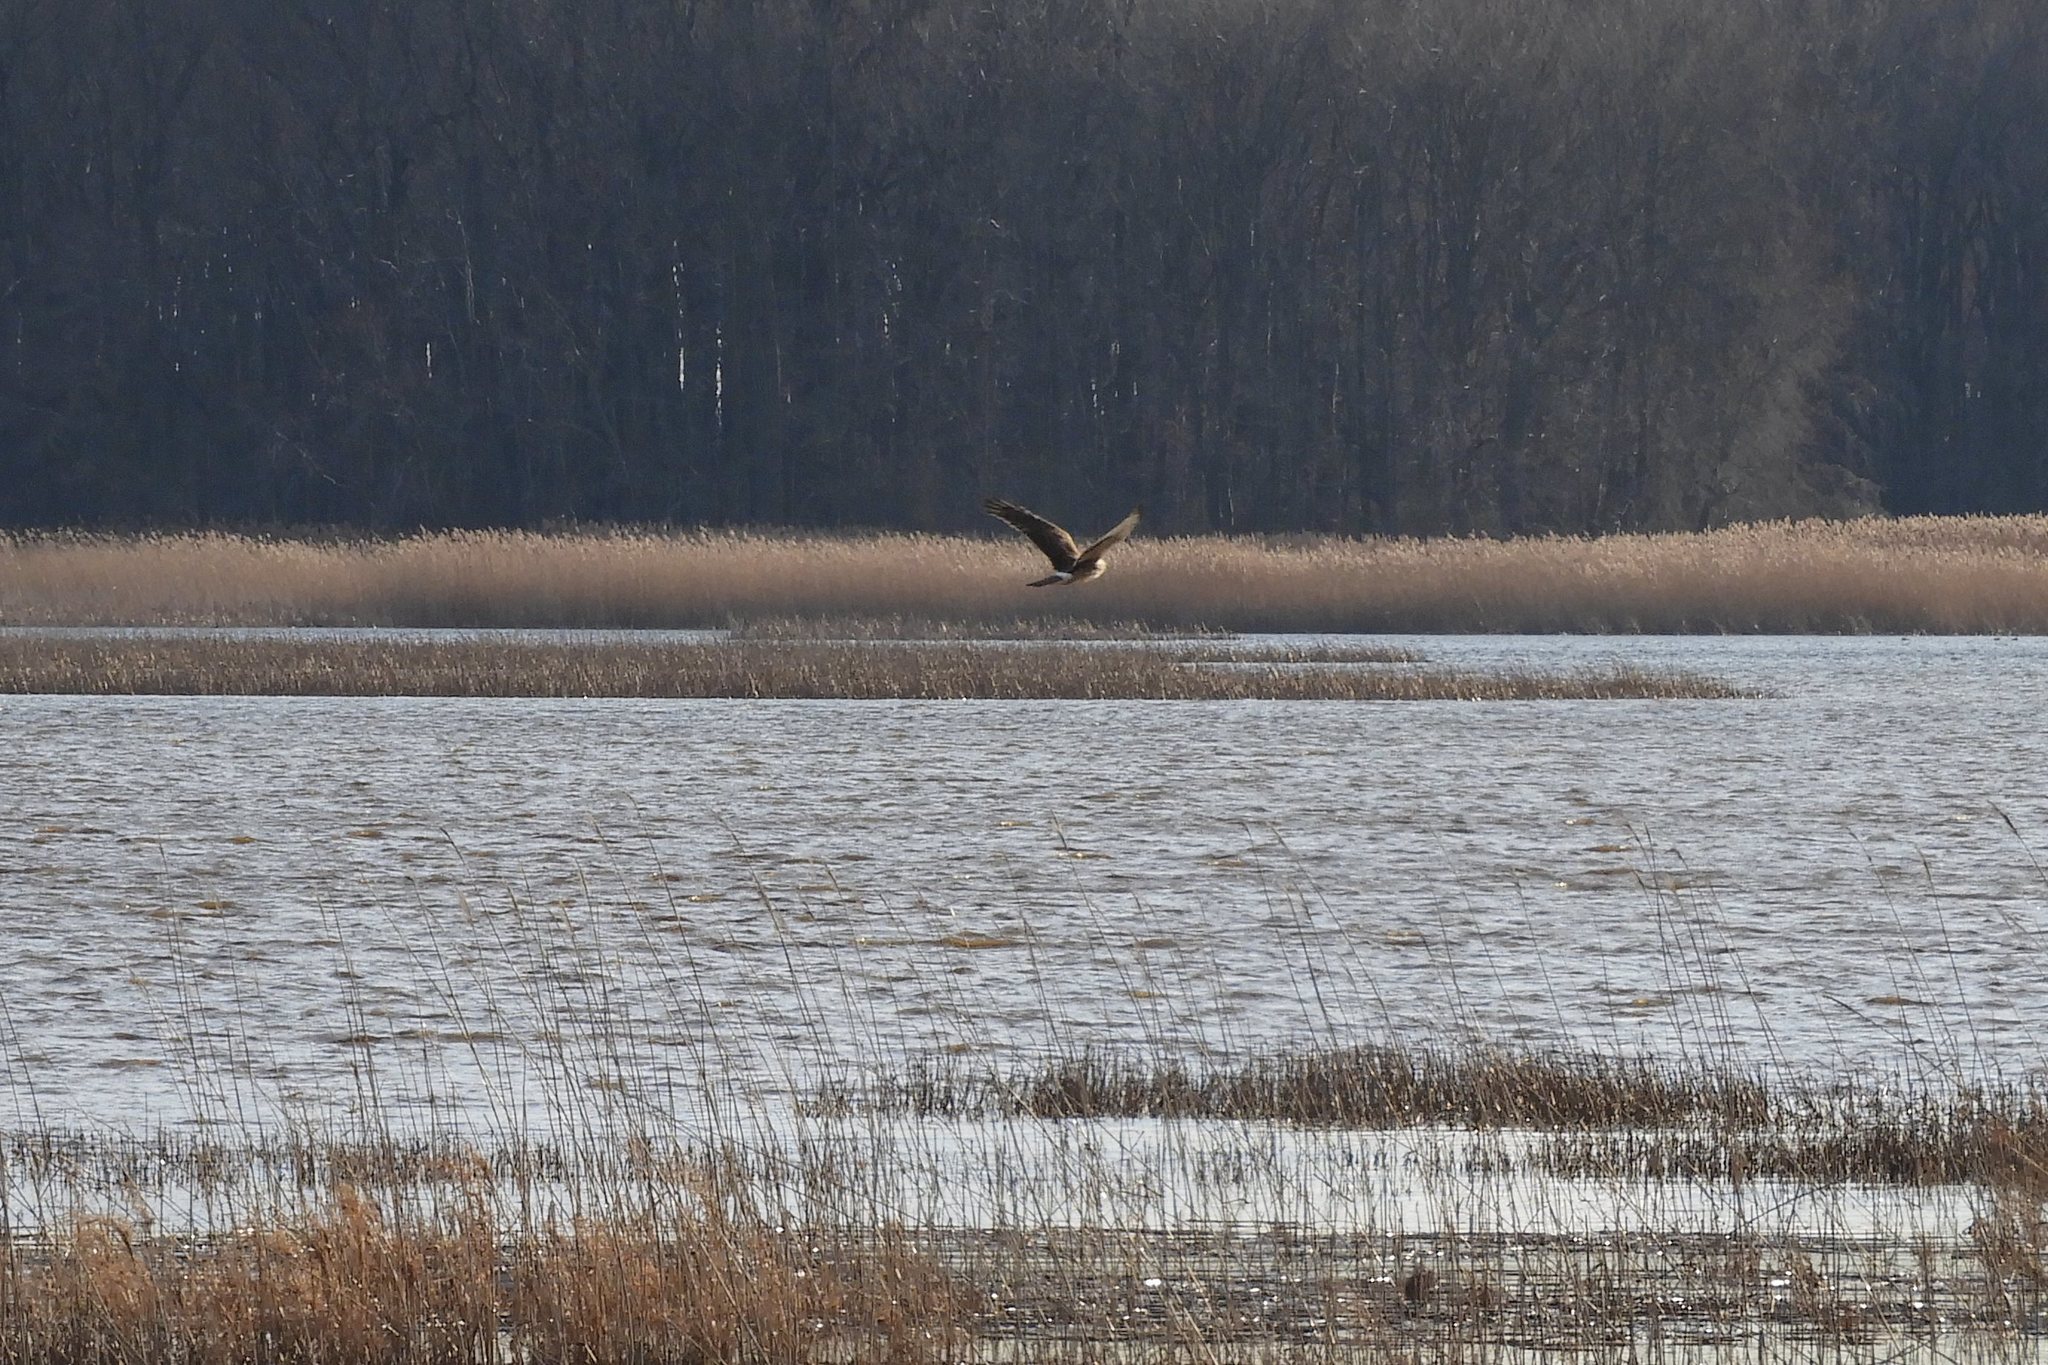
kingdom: Animalia
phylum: Chordata
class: Aves
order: Accipitriformes
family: Accipitridae
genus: Circus
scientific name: Circus cyaneus
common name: Hen harrier
